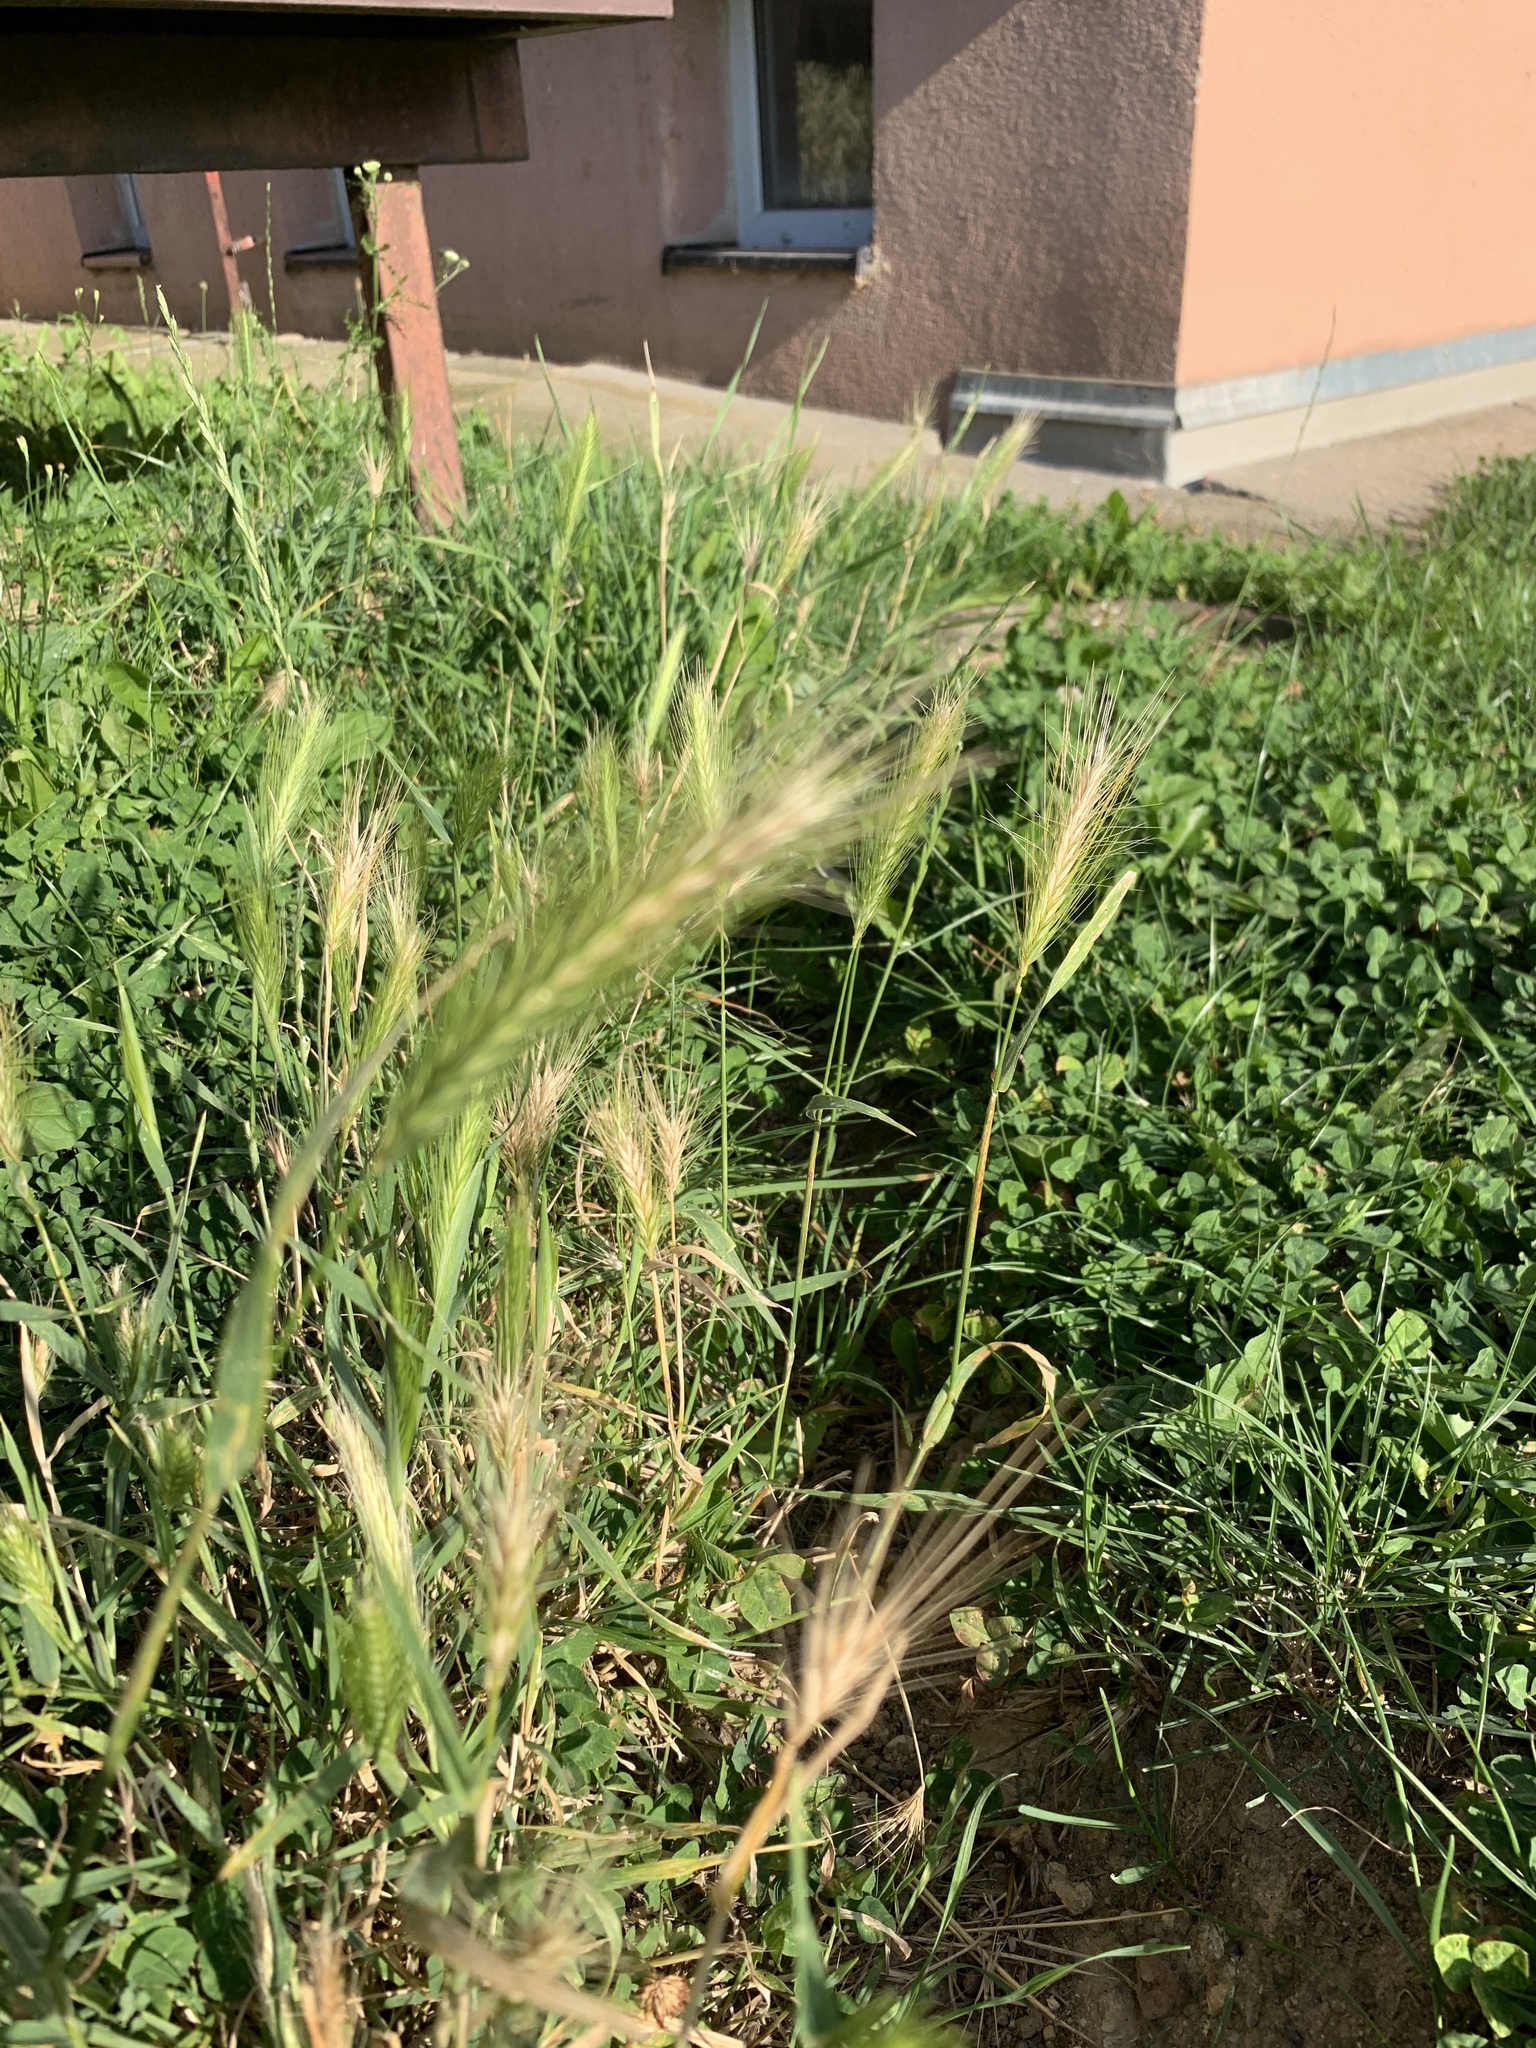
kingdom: Plantae
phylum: Tracheophyta
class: Liliopsida
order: Poales
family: Poaceae
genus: Hordeum
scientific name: Hordeum murinum
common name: Wall barley
